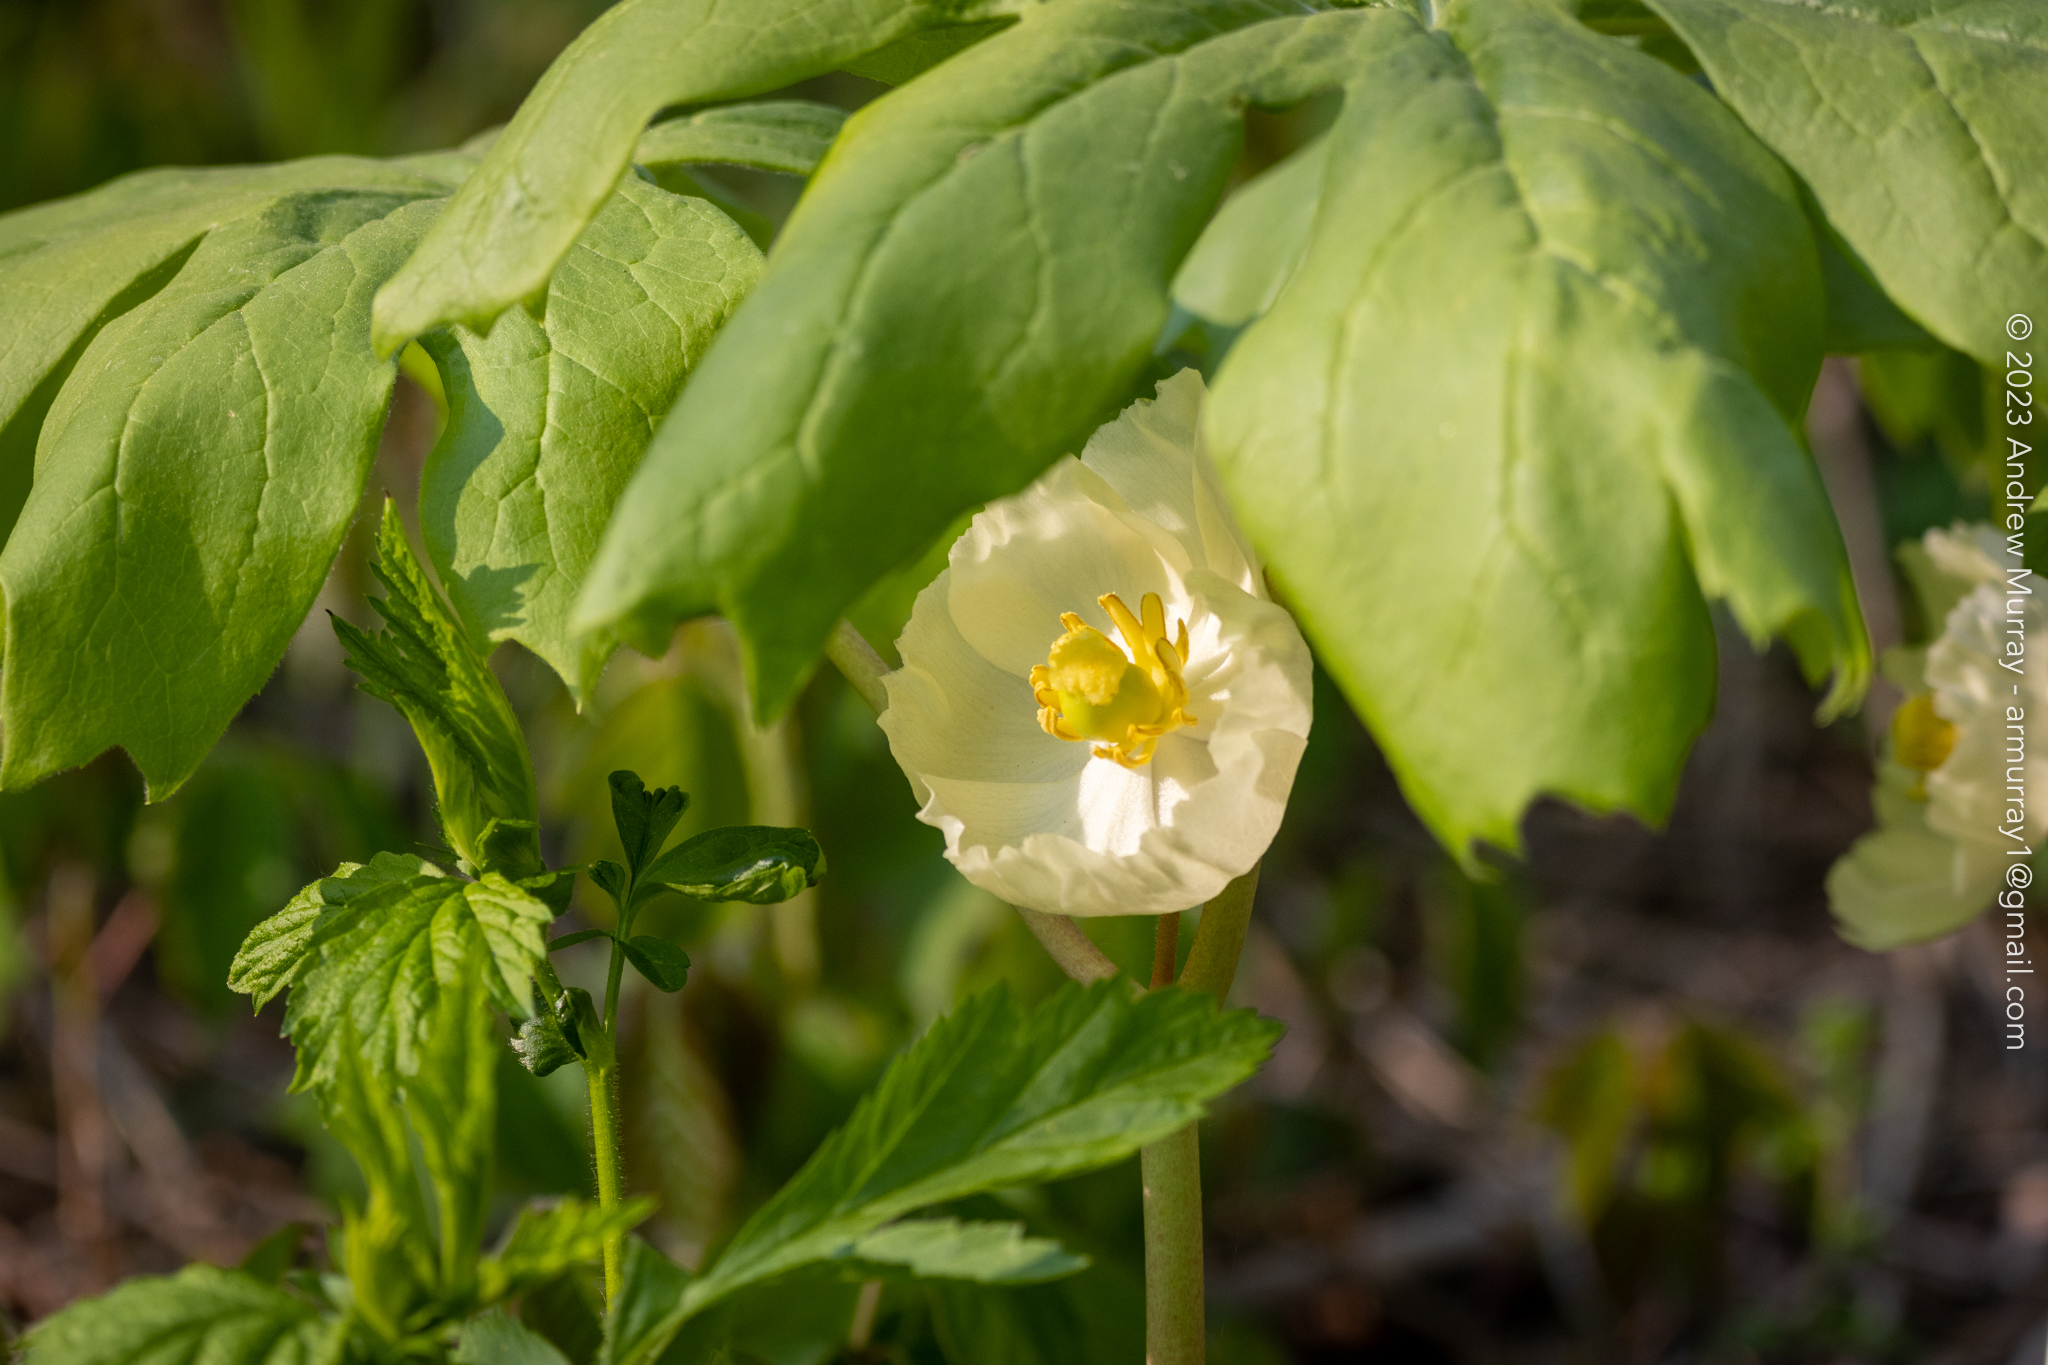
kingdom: Plantae
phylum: Tracheophyta
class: Magnoliopsida
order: Ranunculales
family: Berberidaceae
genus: Podophyllum
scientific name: Podophyllum peltatum
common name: Wild mandrake
